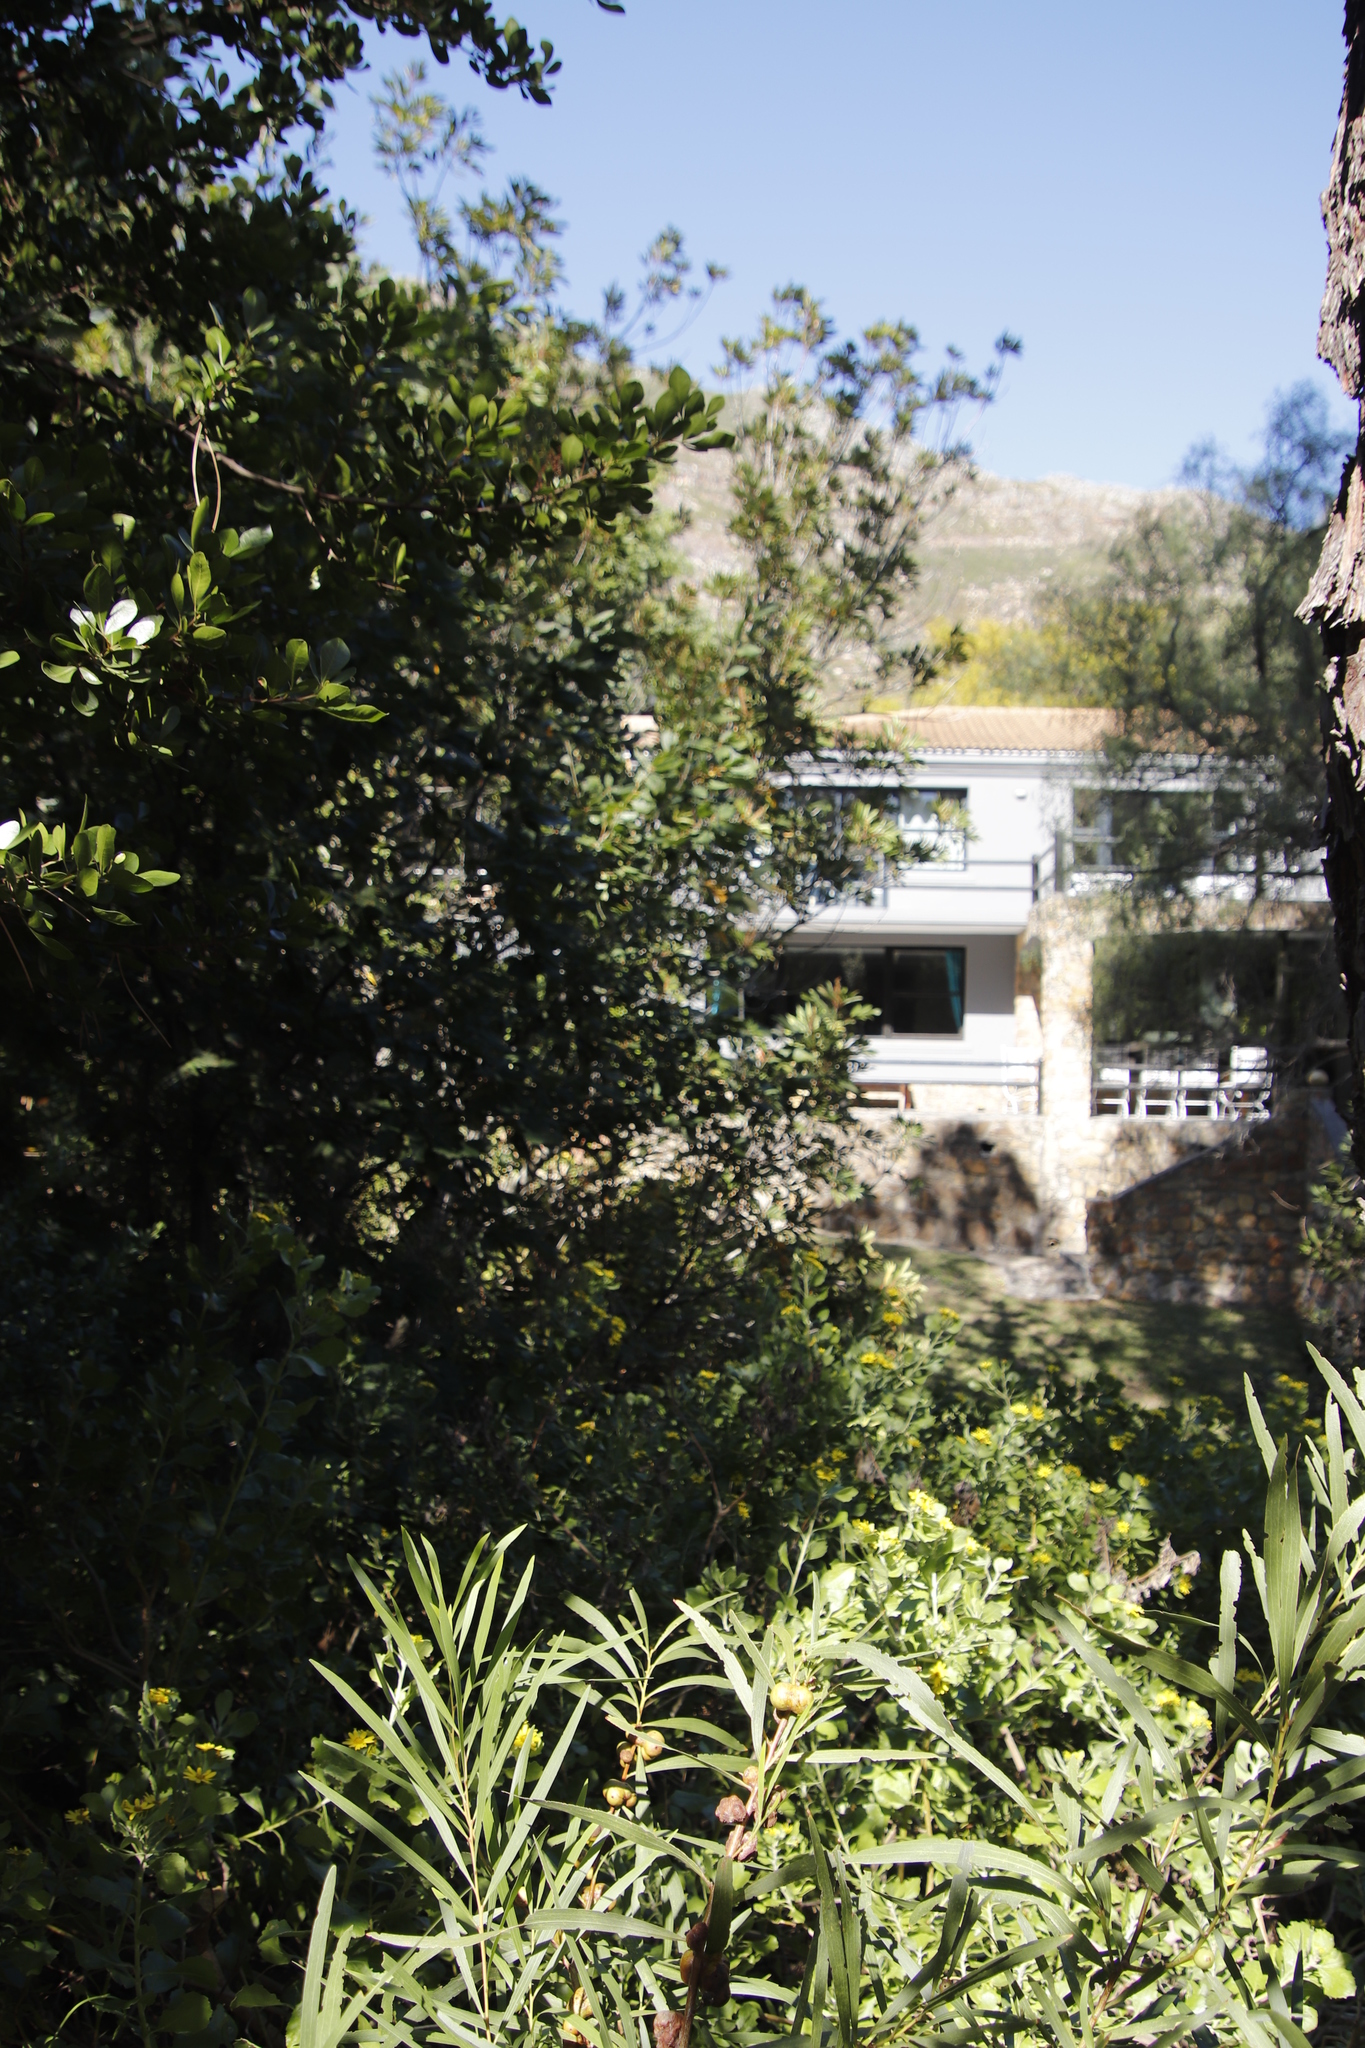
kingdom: Plantae
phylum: Tracheophyta
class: Magnoliopsida
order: Oxalidales
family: Cunoniaceae
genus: Cunonia
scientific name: Cunonia capensis
